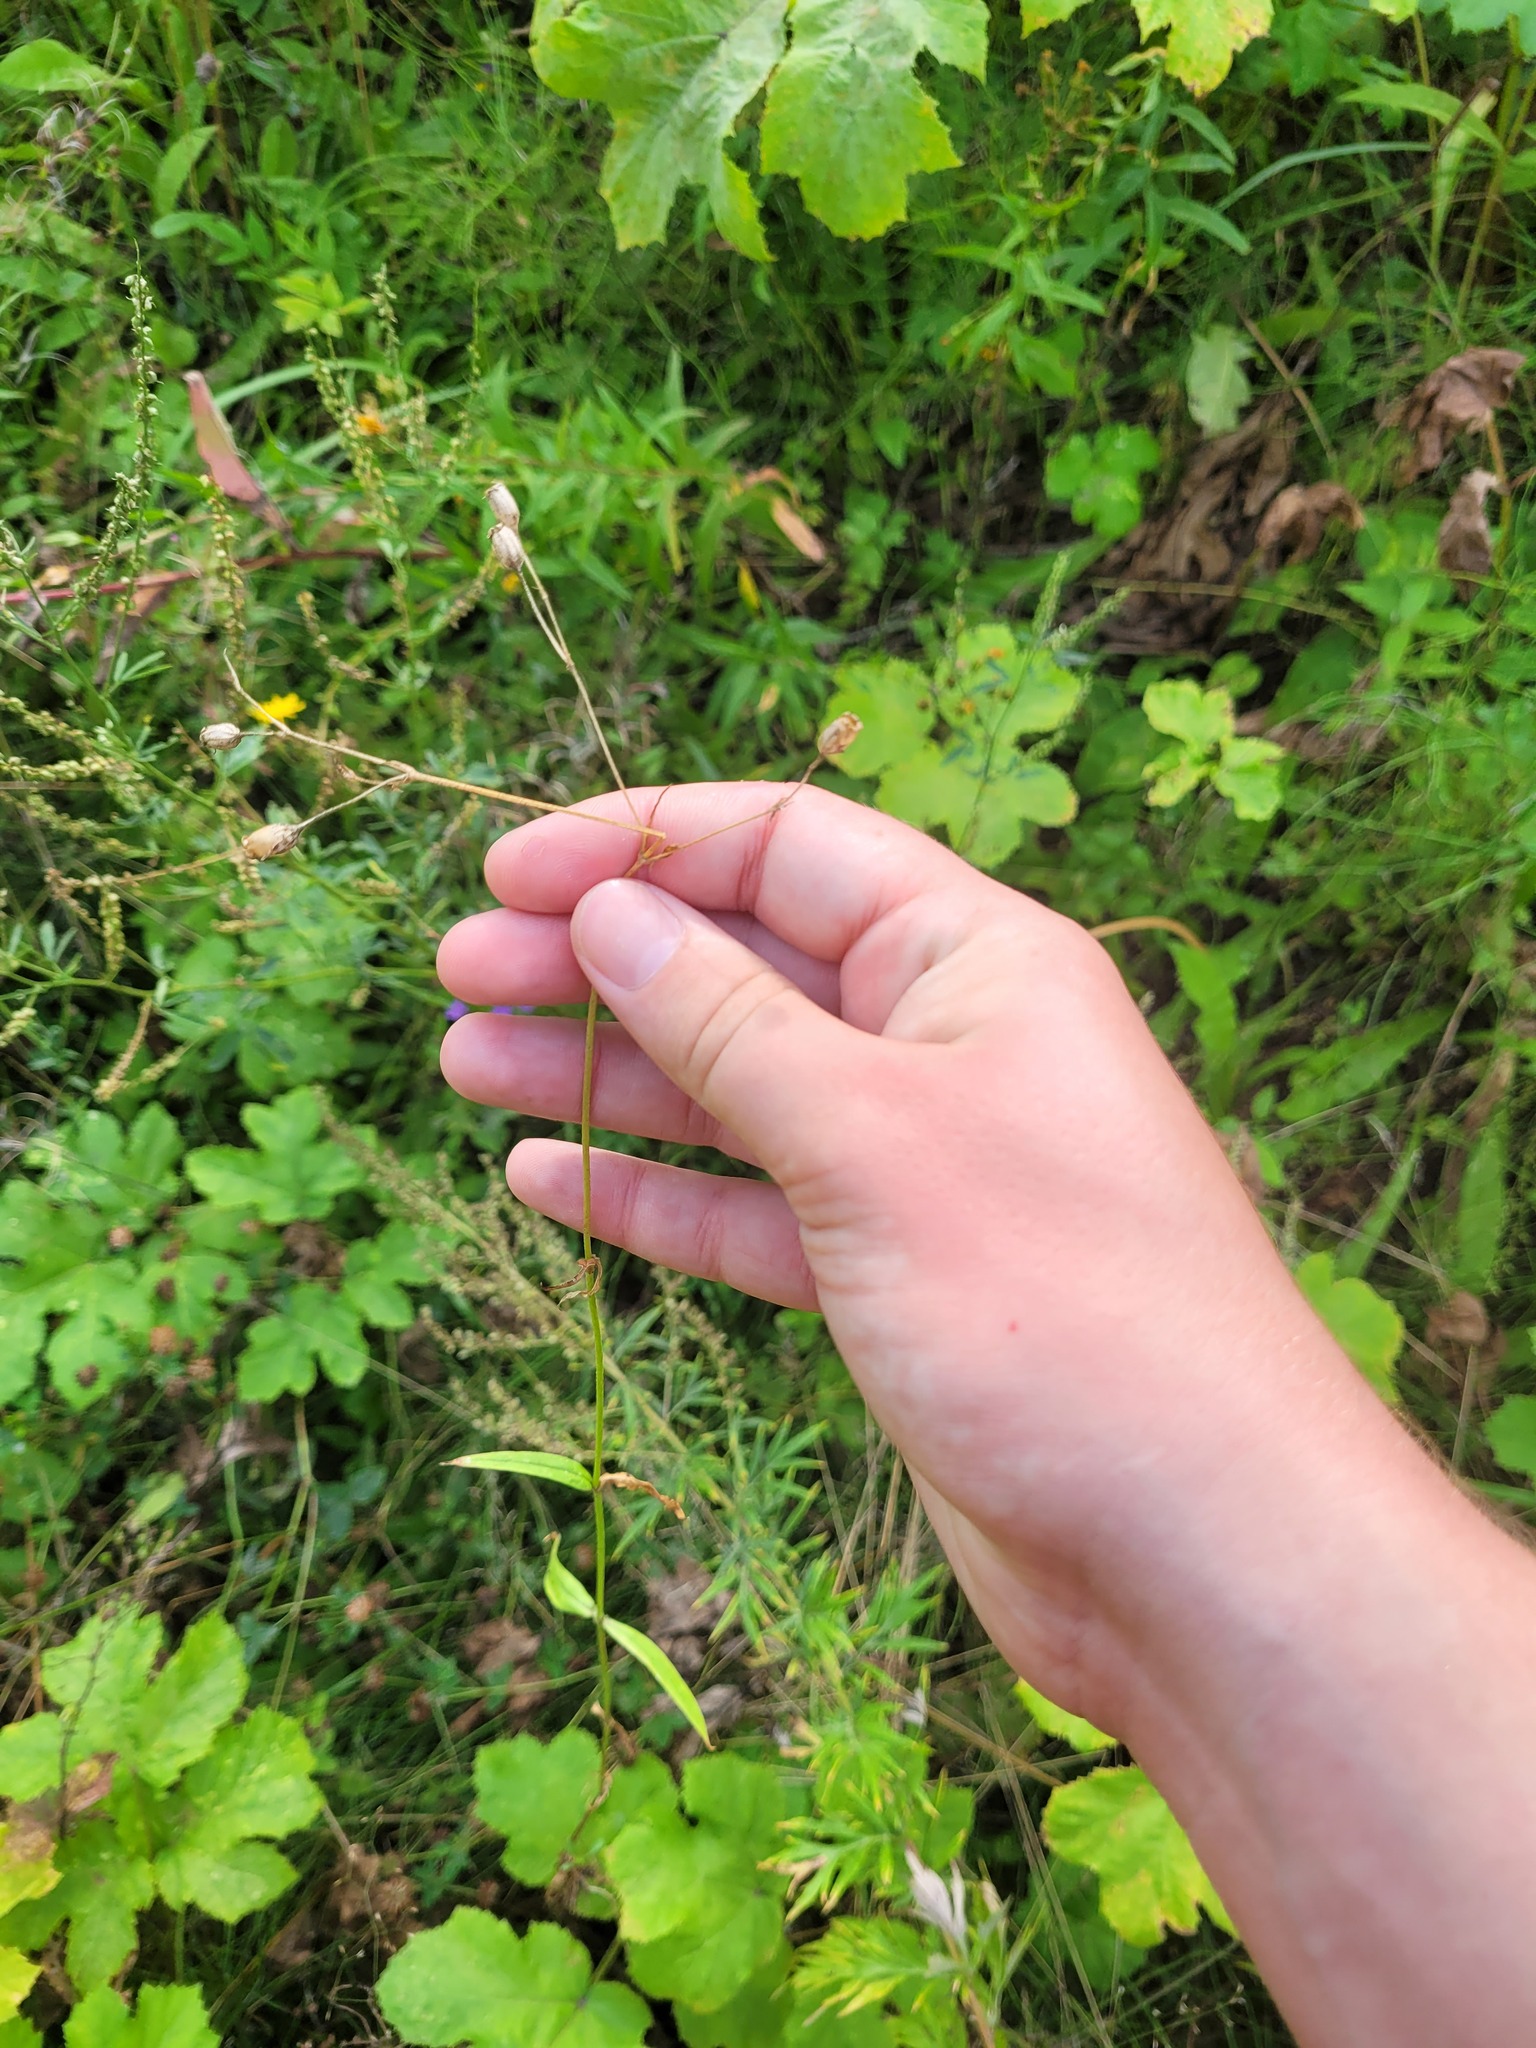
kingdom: Plantae
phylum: Tracheophyta
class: Magnoliopsida
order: Caryophyllales
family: Caryophyllaceae
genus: Silene
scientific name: Silene flos-cuculi
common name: Ragged-robin
